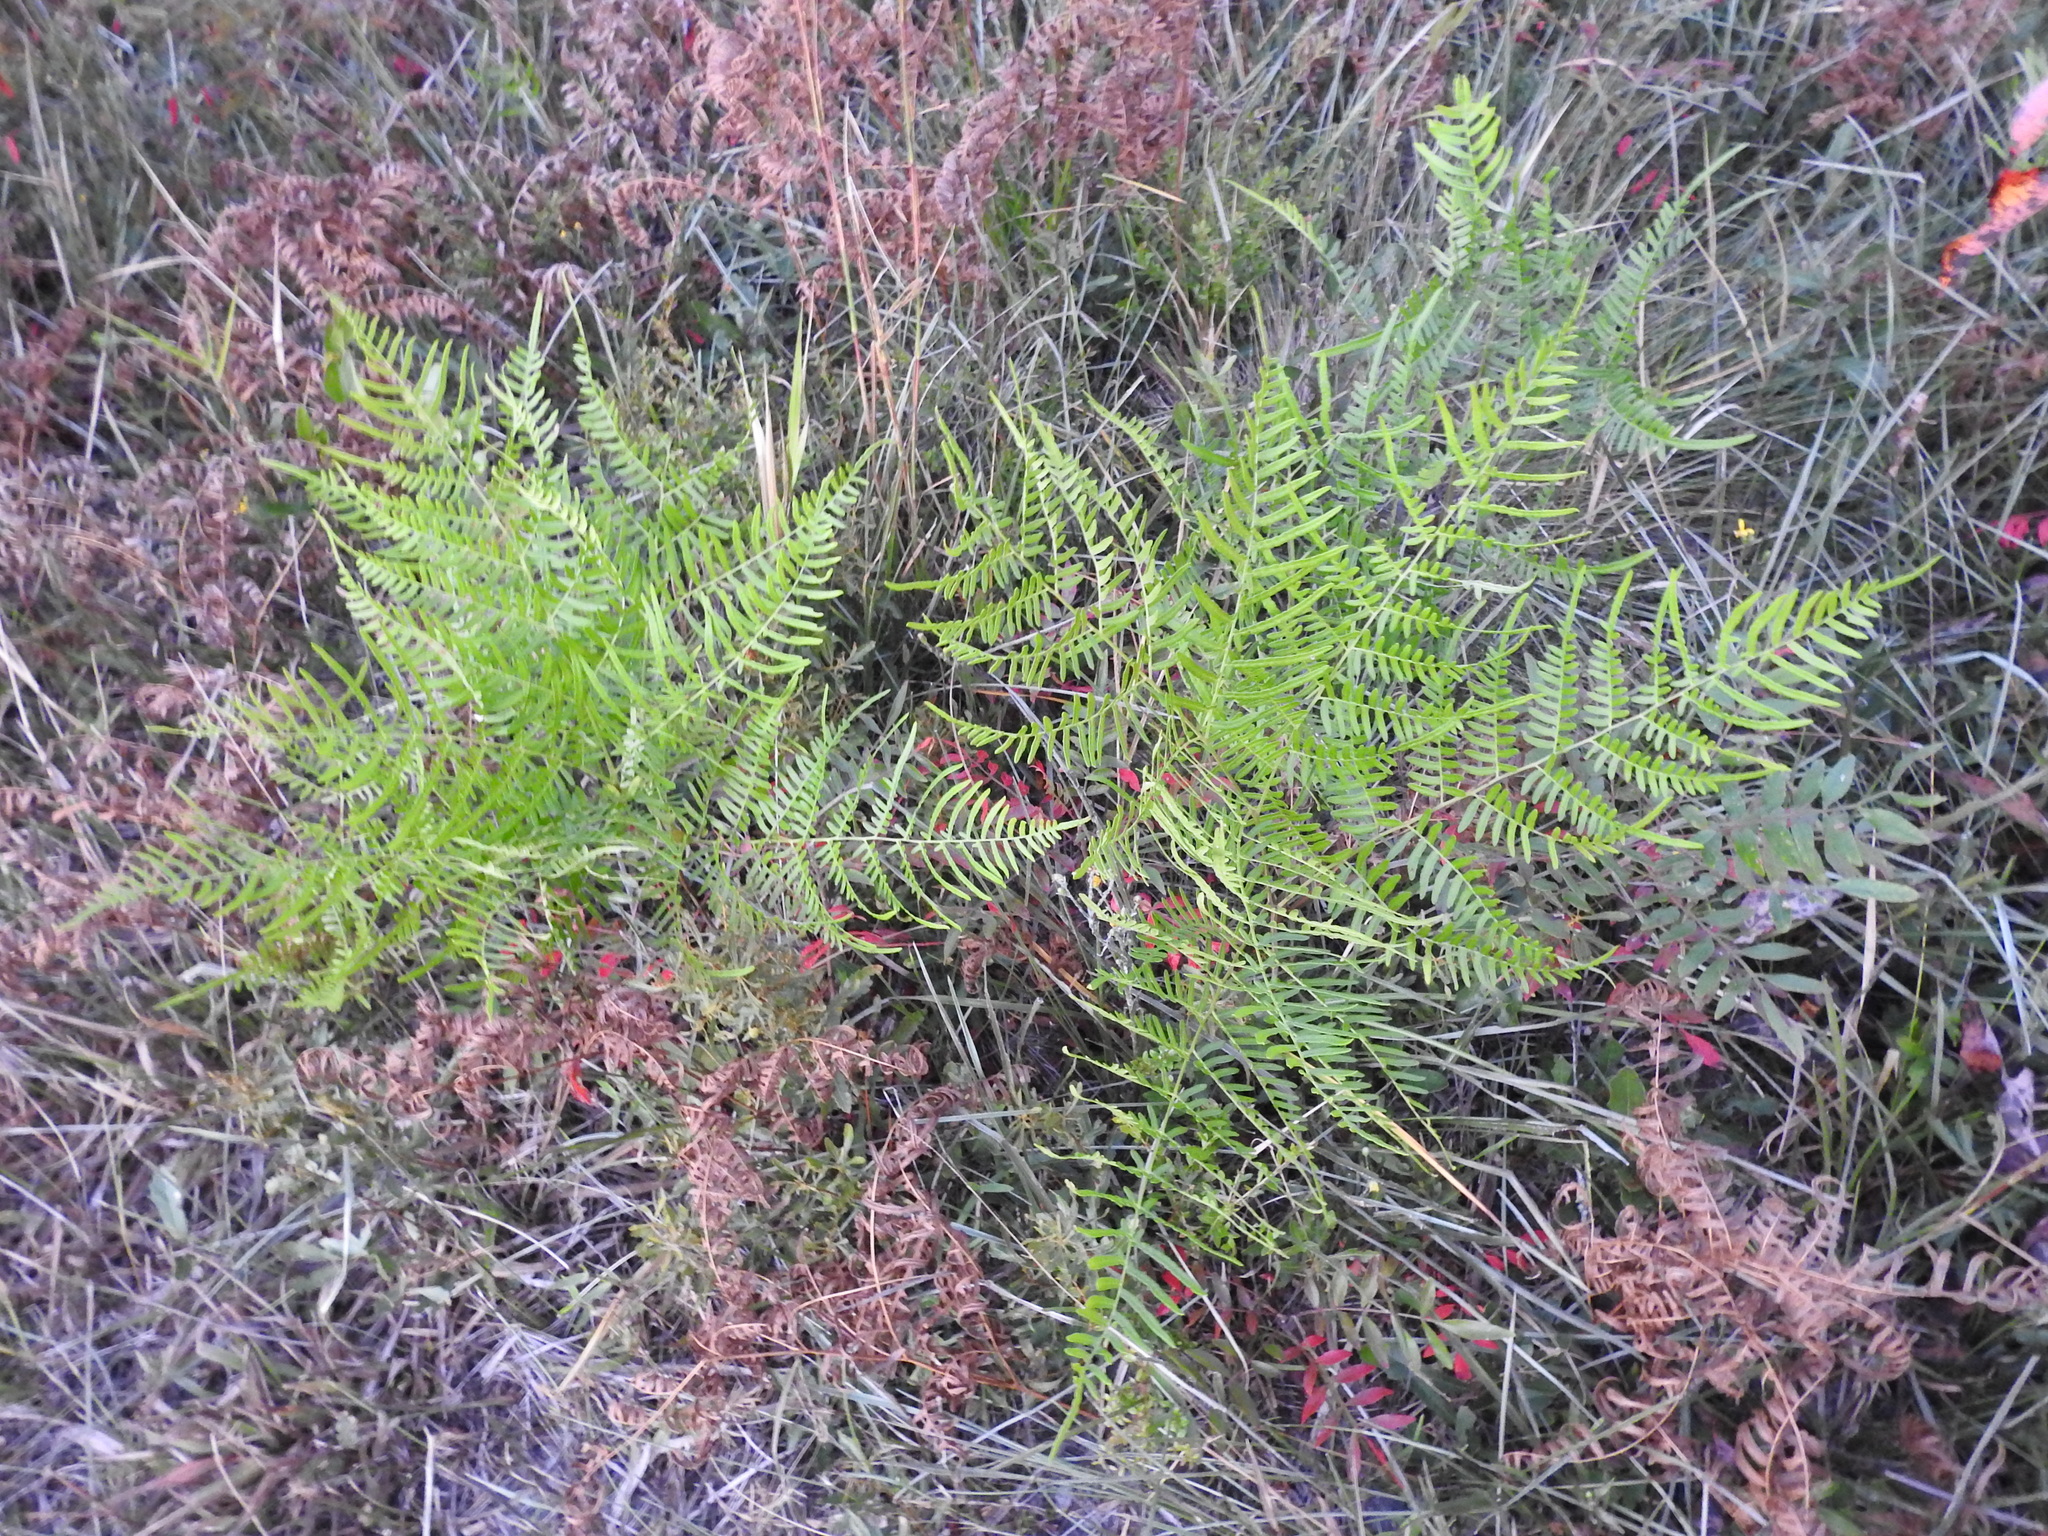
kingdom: Plantae
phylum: Tracheophyta
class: Polypodiopsida
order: Polypodiales
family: Dennstaedtiaceae
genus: Pteridium
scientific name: Pteridium aquilinum
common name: Bracken
